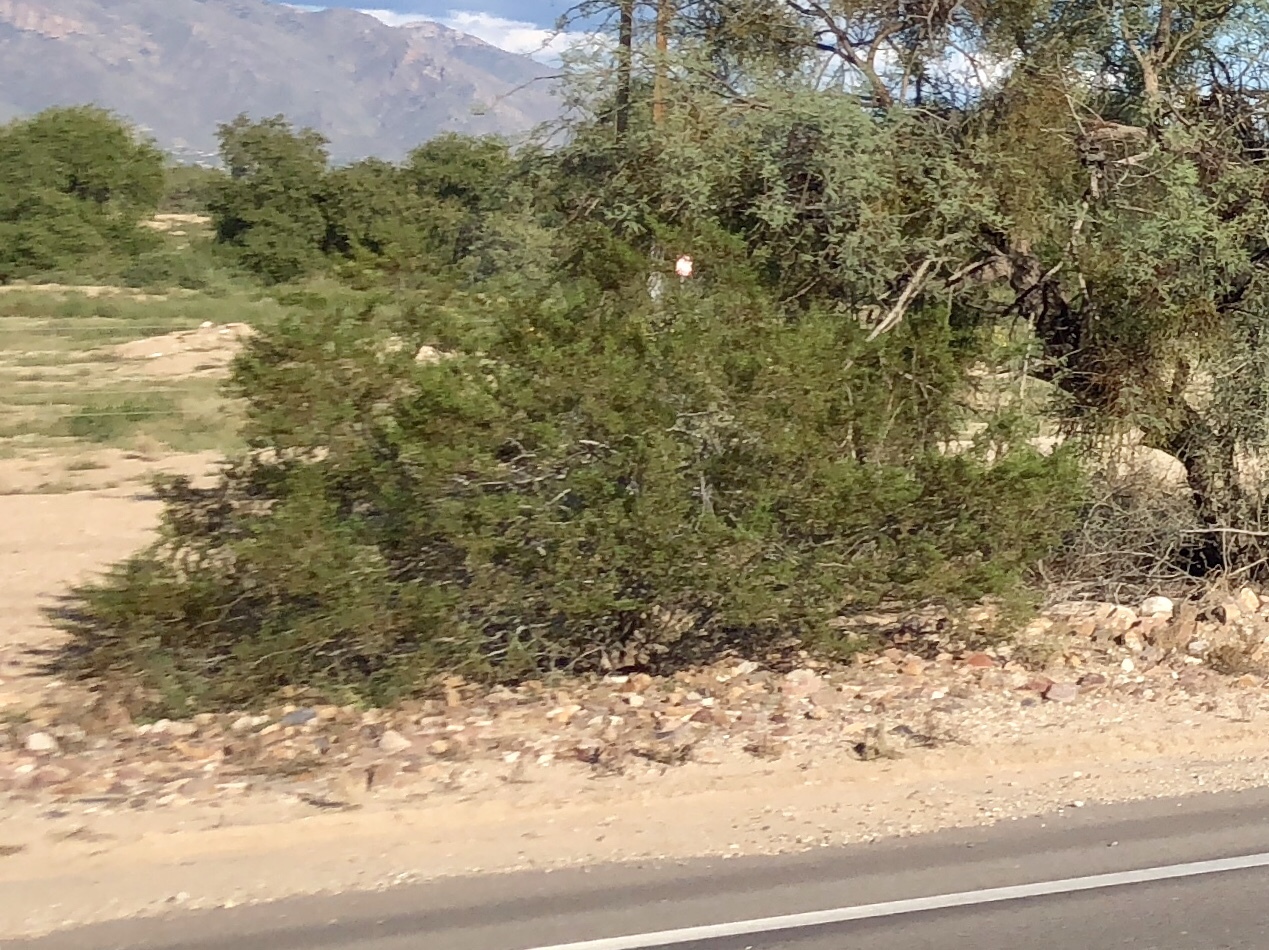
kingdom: Plantae
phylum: Tracheophyta
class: Magnoliopsida
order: Zygophyllales
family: Zygophyllaceae
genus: Larrea
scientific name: Larrea tridentata
